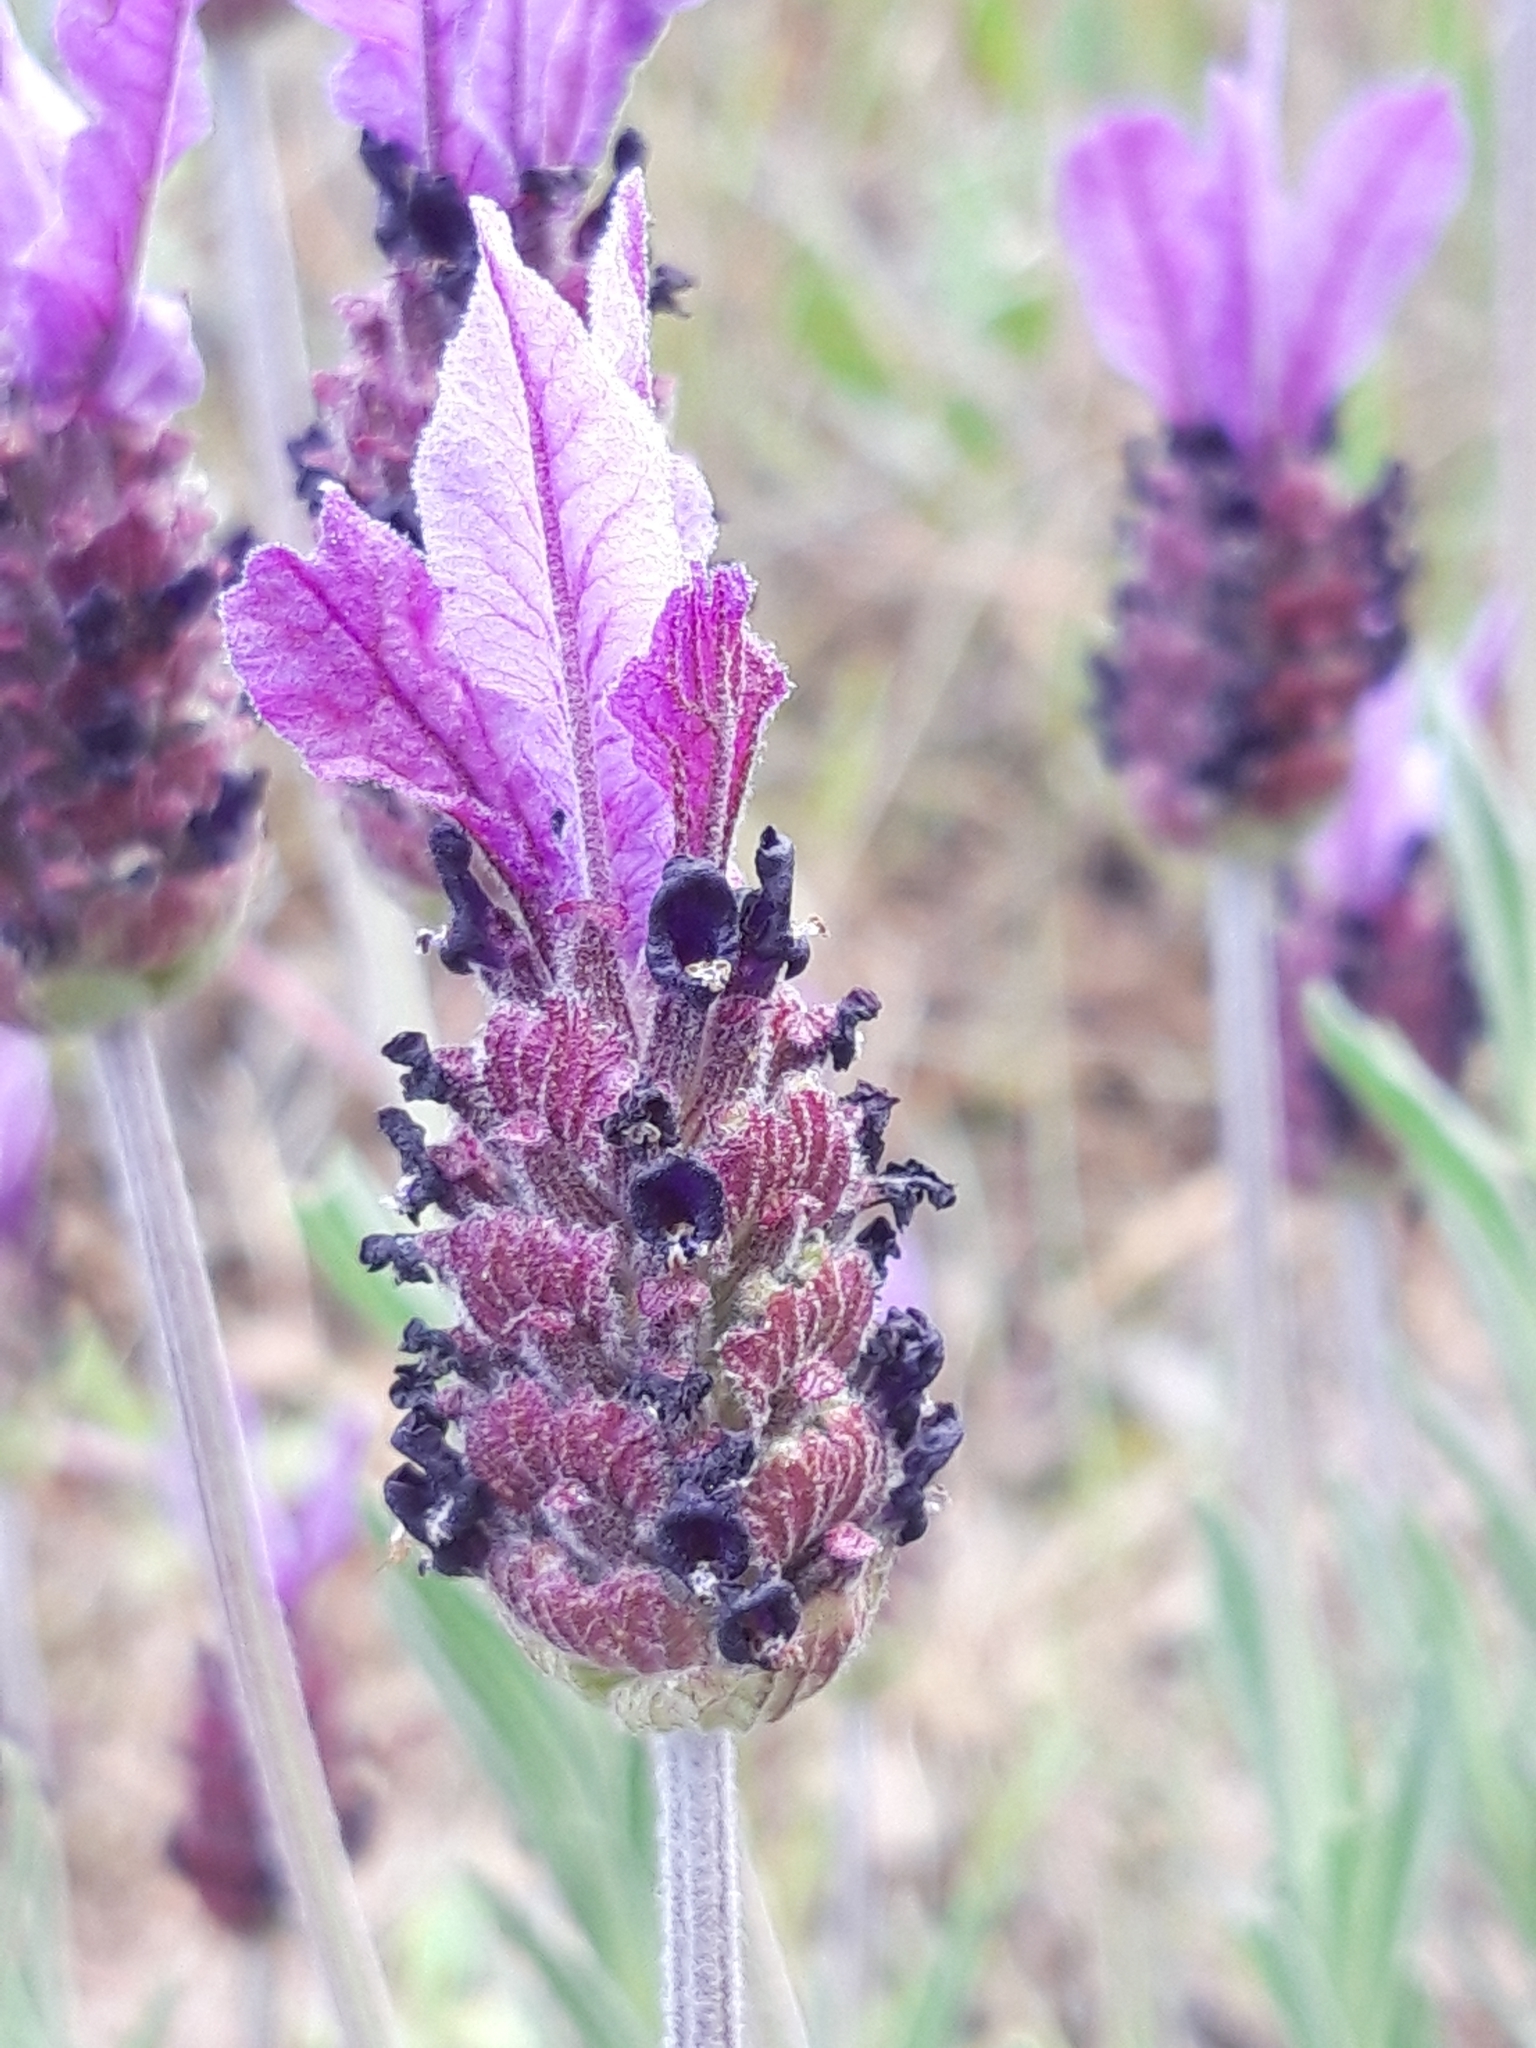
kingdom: Plantae
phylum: Tracheophyta
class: Magnoliopsida
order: Lamiales
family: Lamiaceae
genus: Lavandula
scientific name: Lavandula pedunculata
